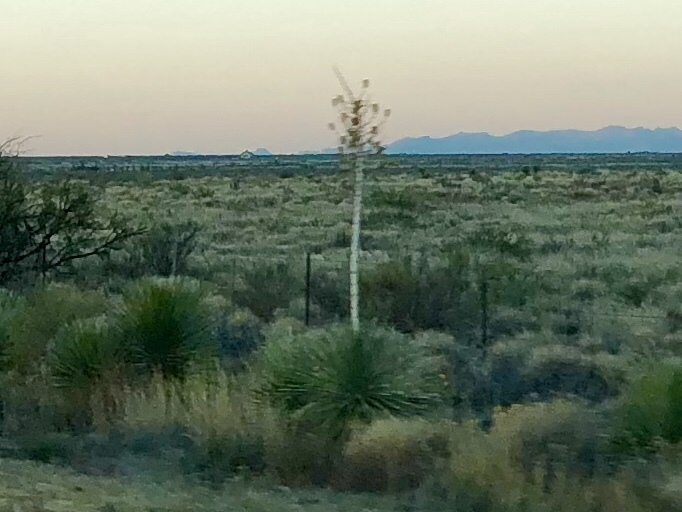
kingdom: Plantae
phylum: Tracheophyta
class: Liliopsida
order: Asparagales
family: Asparagaceae
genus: Yucca
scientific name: Yucca elata
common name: Palmella
